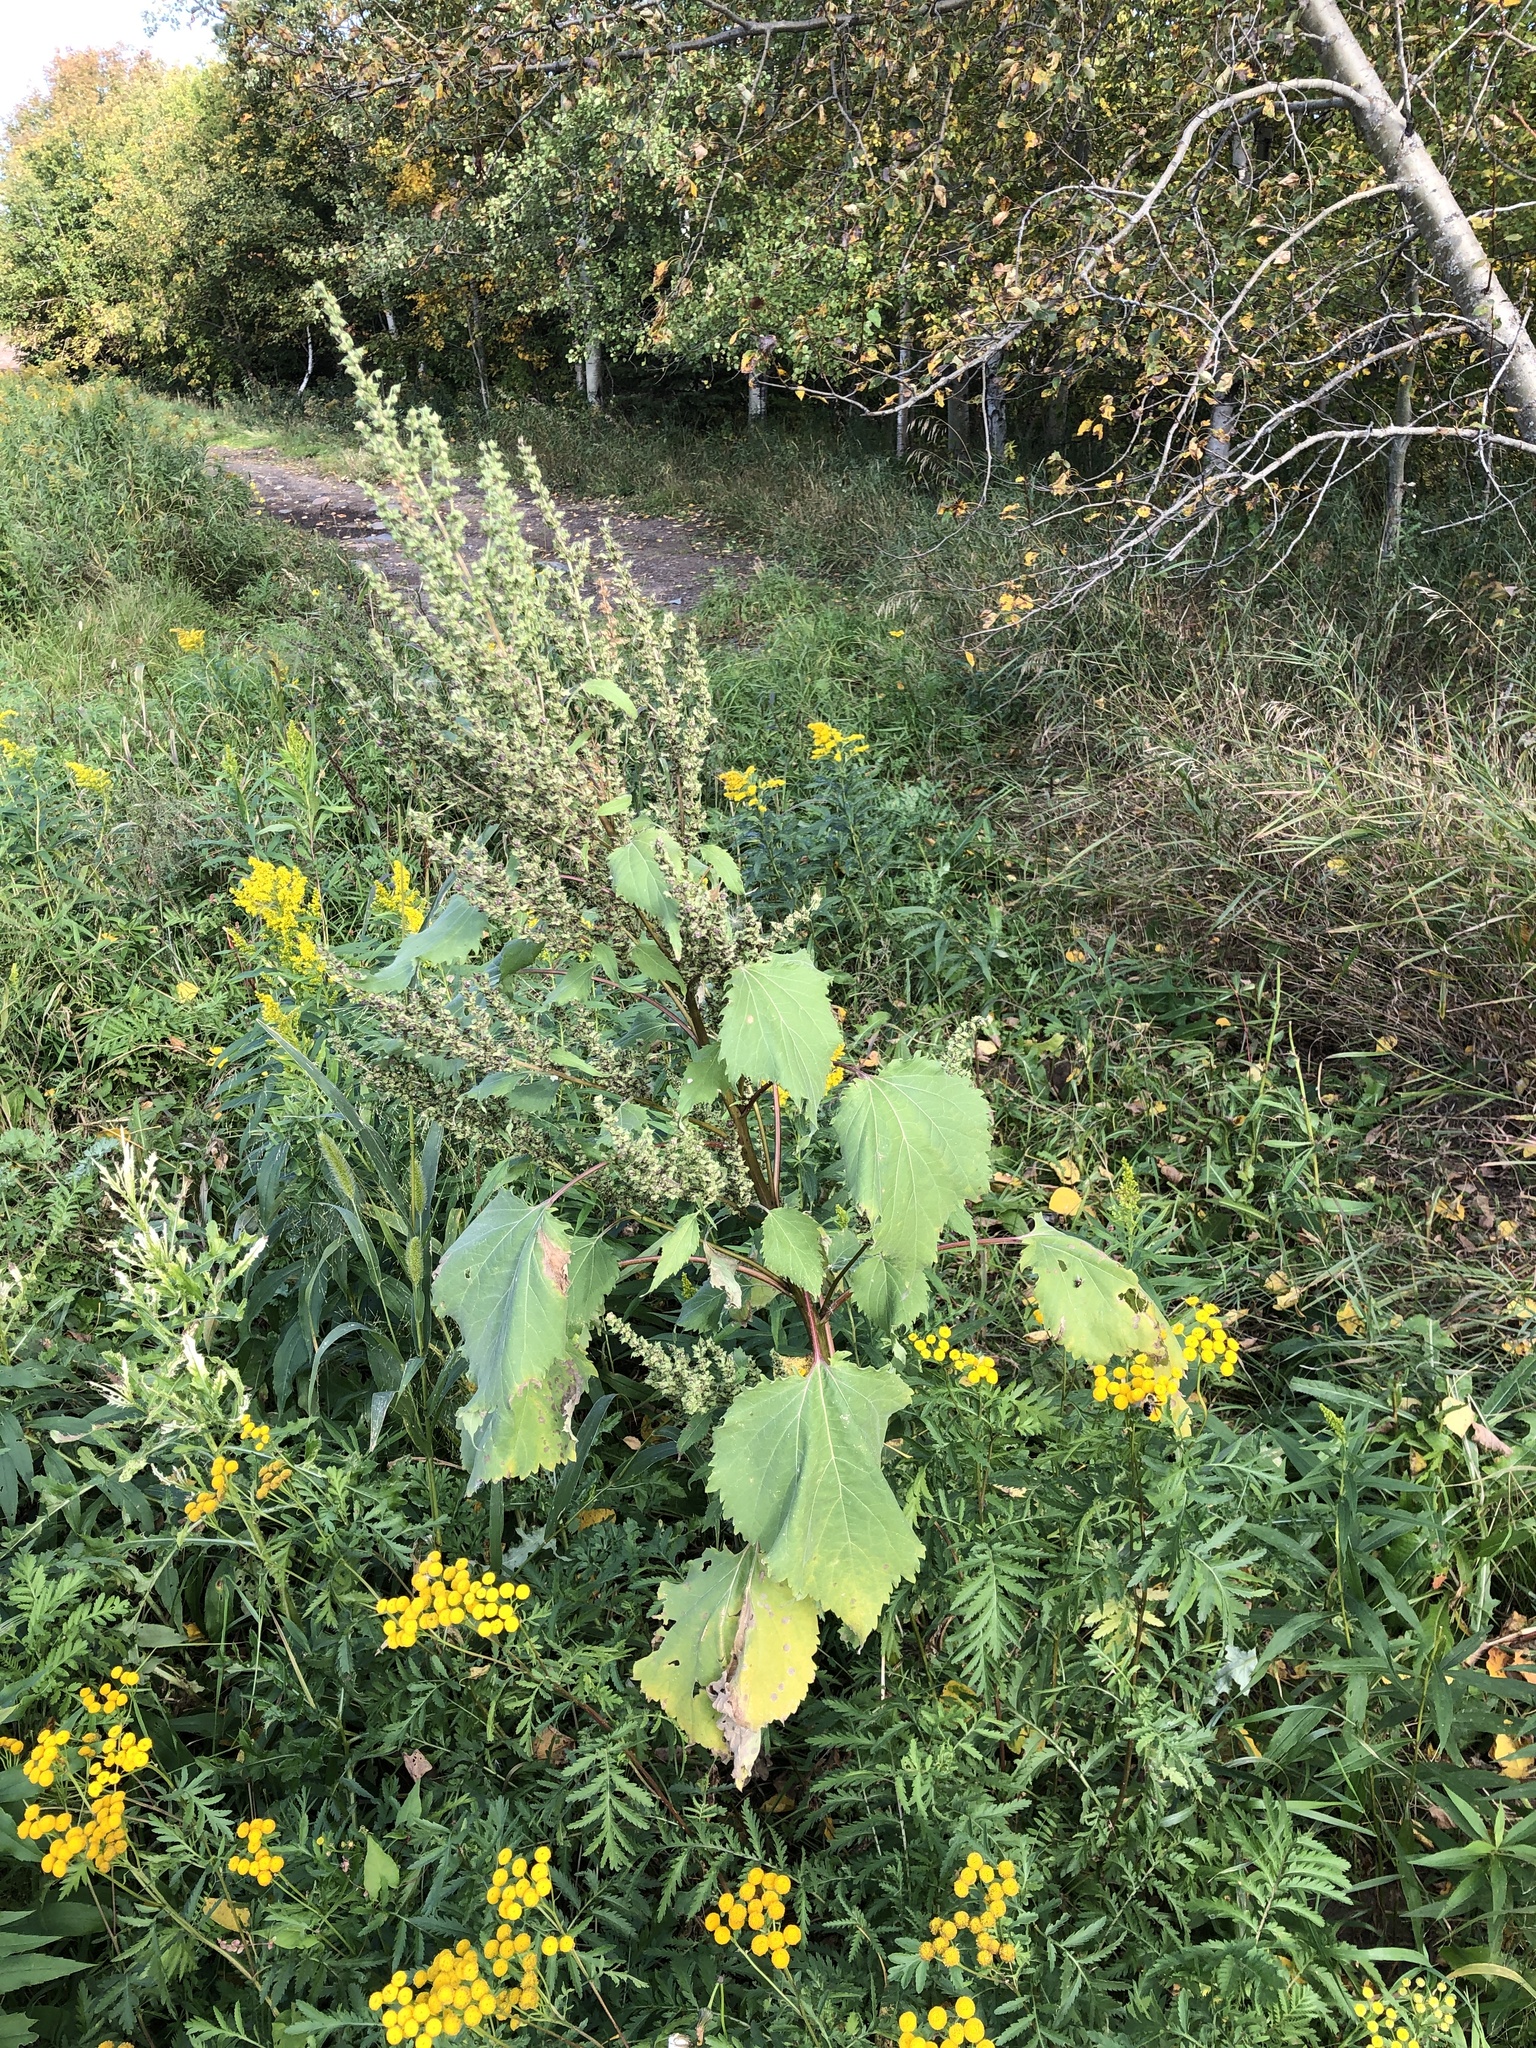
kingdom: Plantae
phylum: Tracheophyta
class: Magnoliopsida
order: Asterales
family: Asteraceae
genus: Cyclachaena
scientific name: Cyclachaena xanthiifolia
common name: Giant sumpweed
